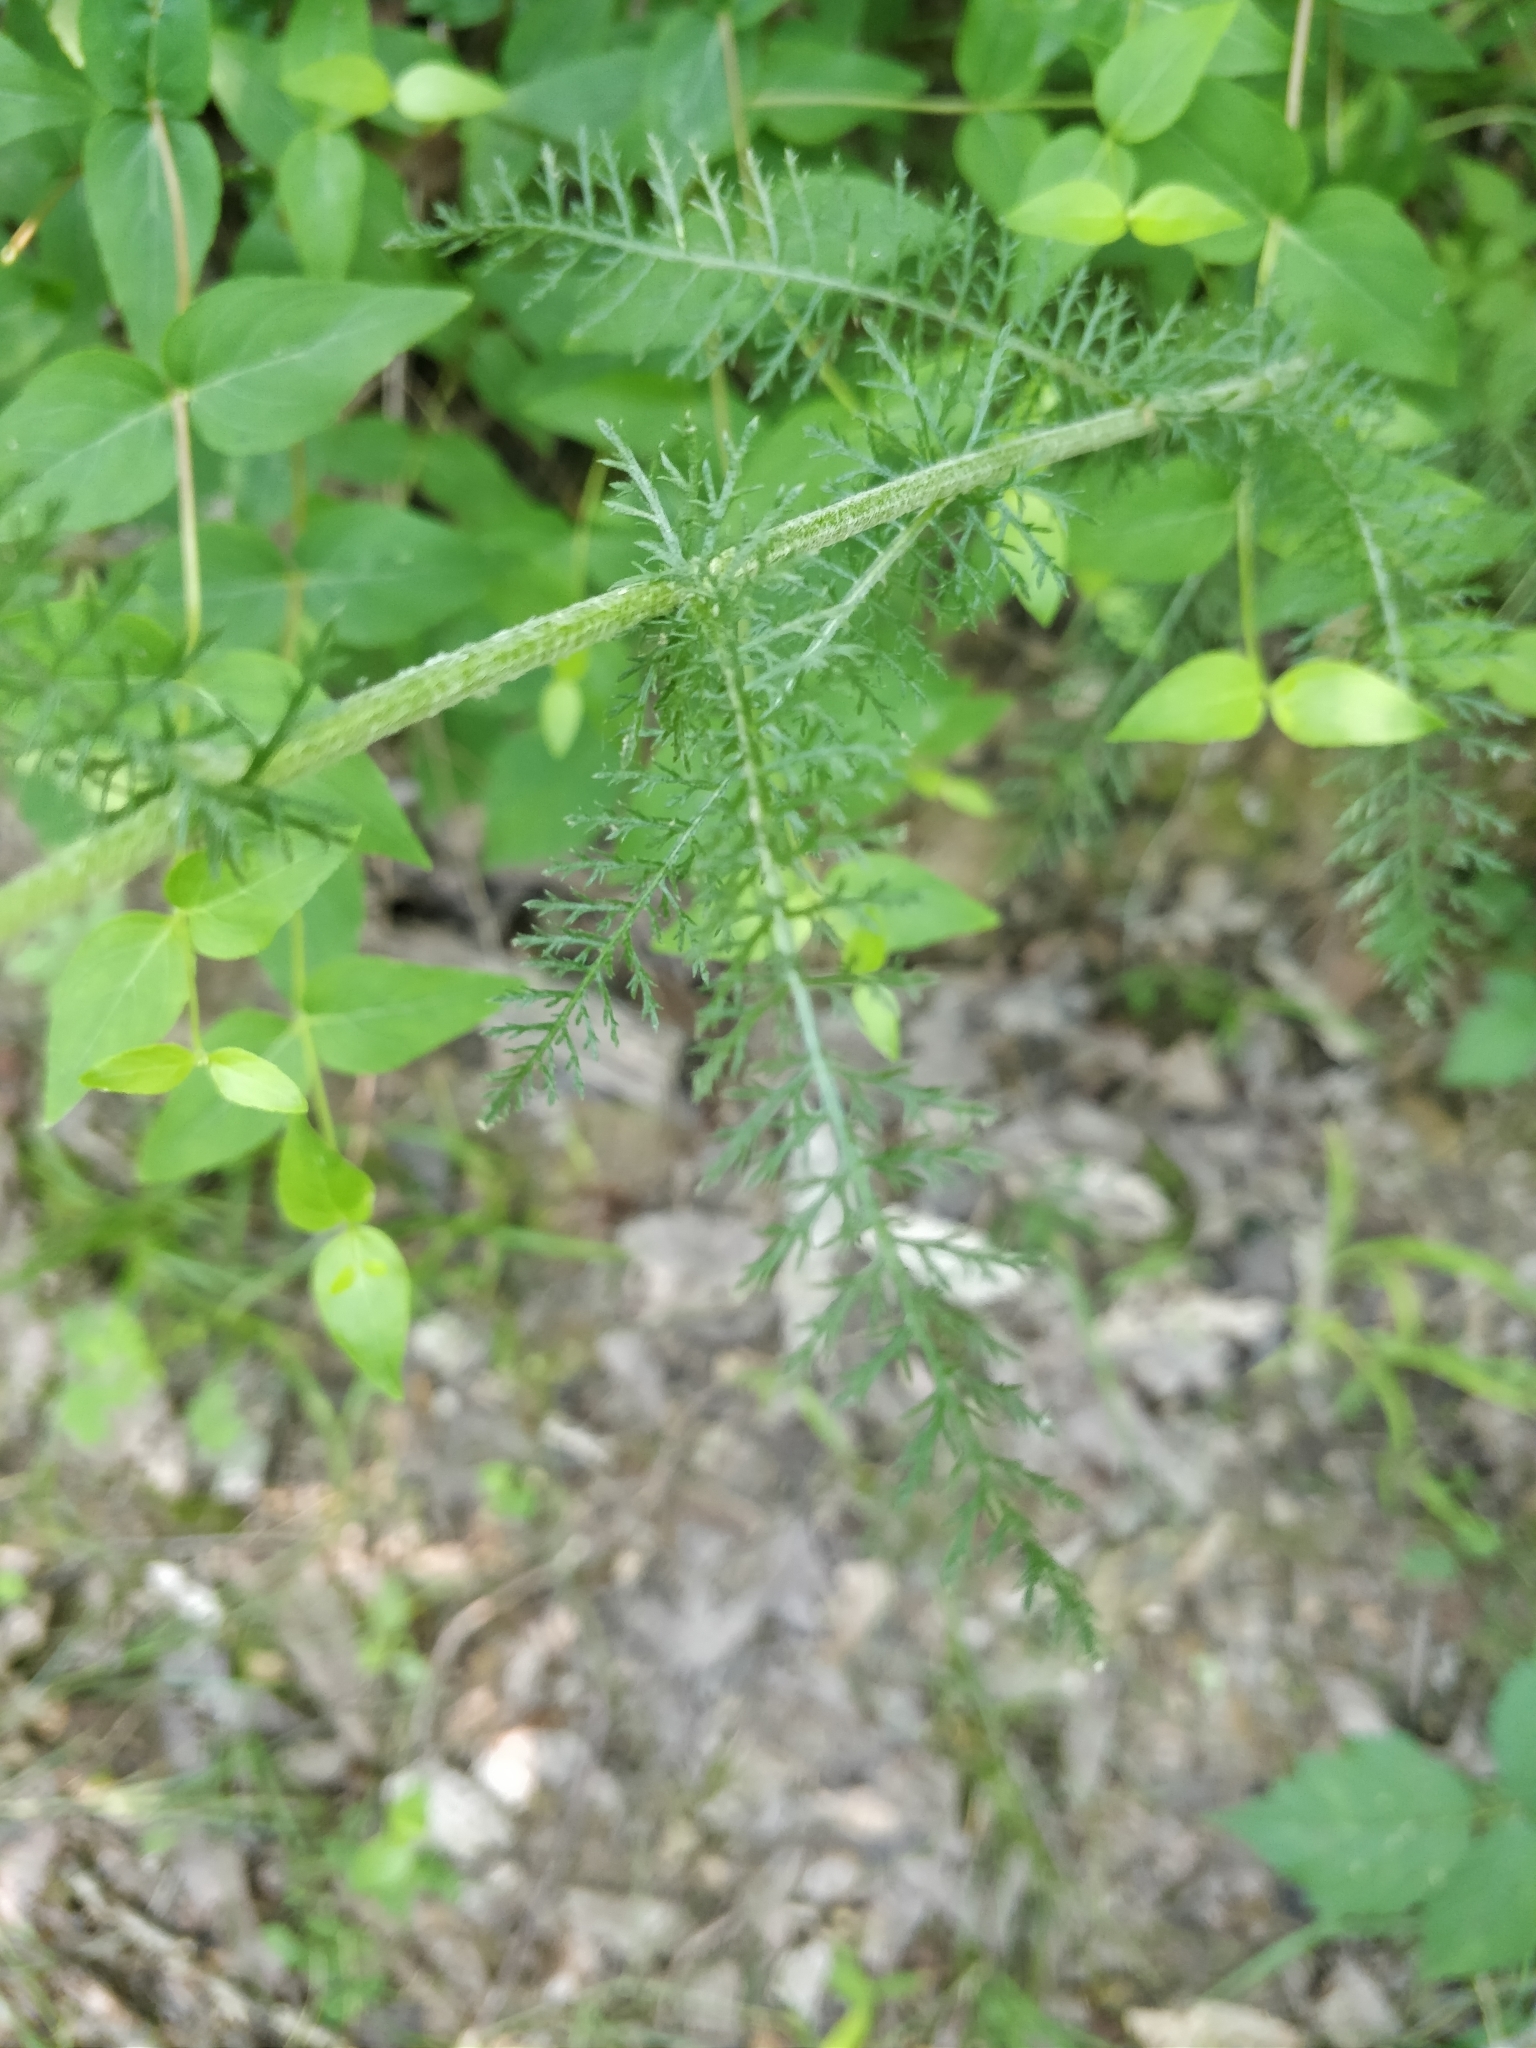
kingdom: Plantae
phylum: Tracheophyta
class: Magnoliopsida
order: Asterales
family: Asteraceae
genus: Achillea
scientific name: Achillea millefolium
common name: Yarrow
